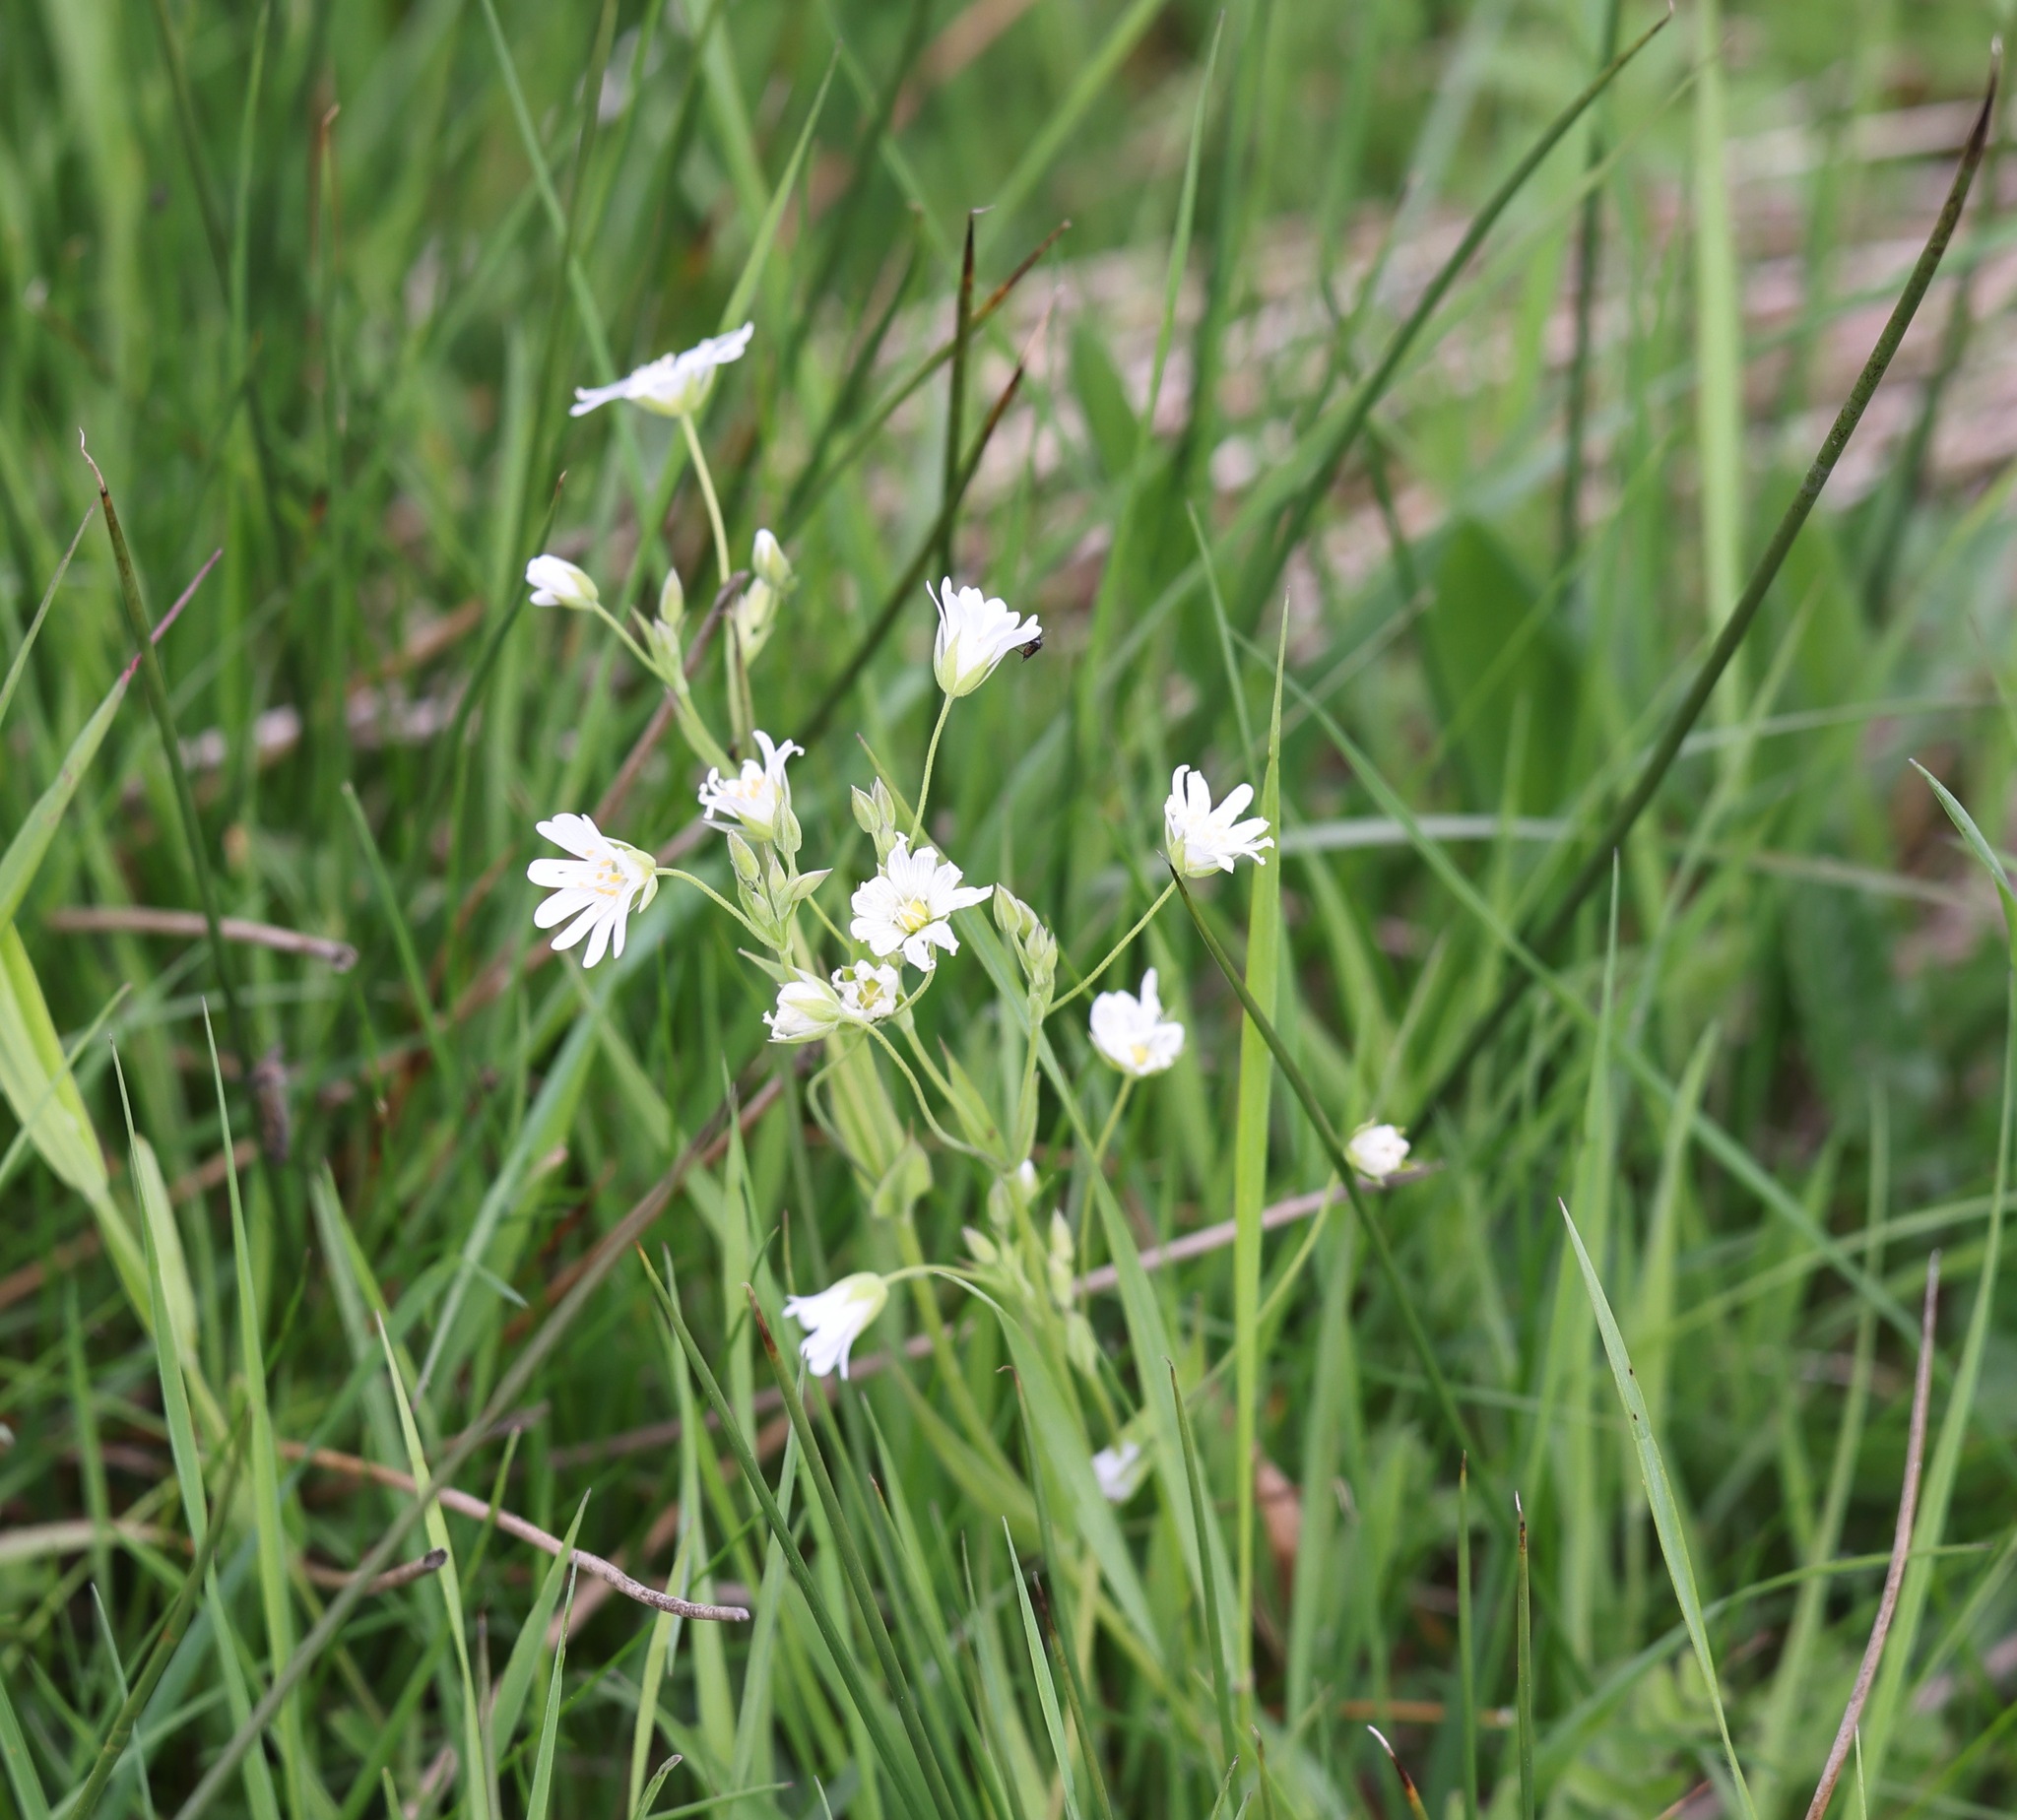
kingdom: Plantae
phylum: Tracheophyta
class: Magnoliopsida
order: Caryophyllales
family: Caryophyllaceae
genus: Rabelera
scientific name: Rabelera holostea
